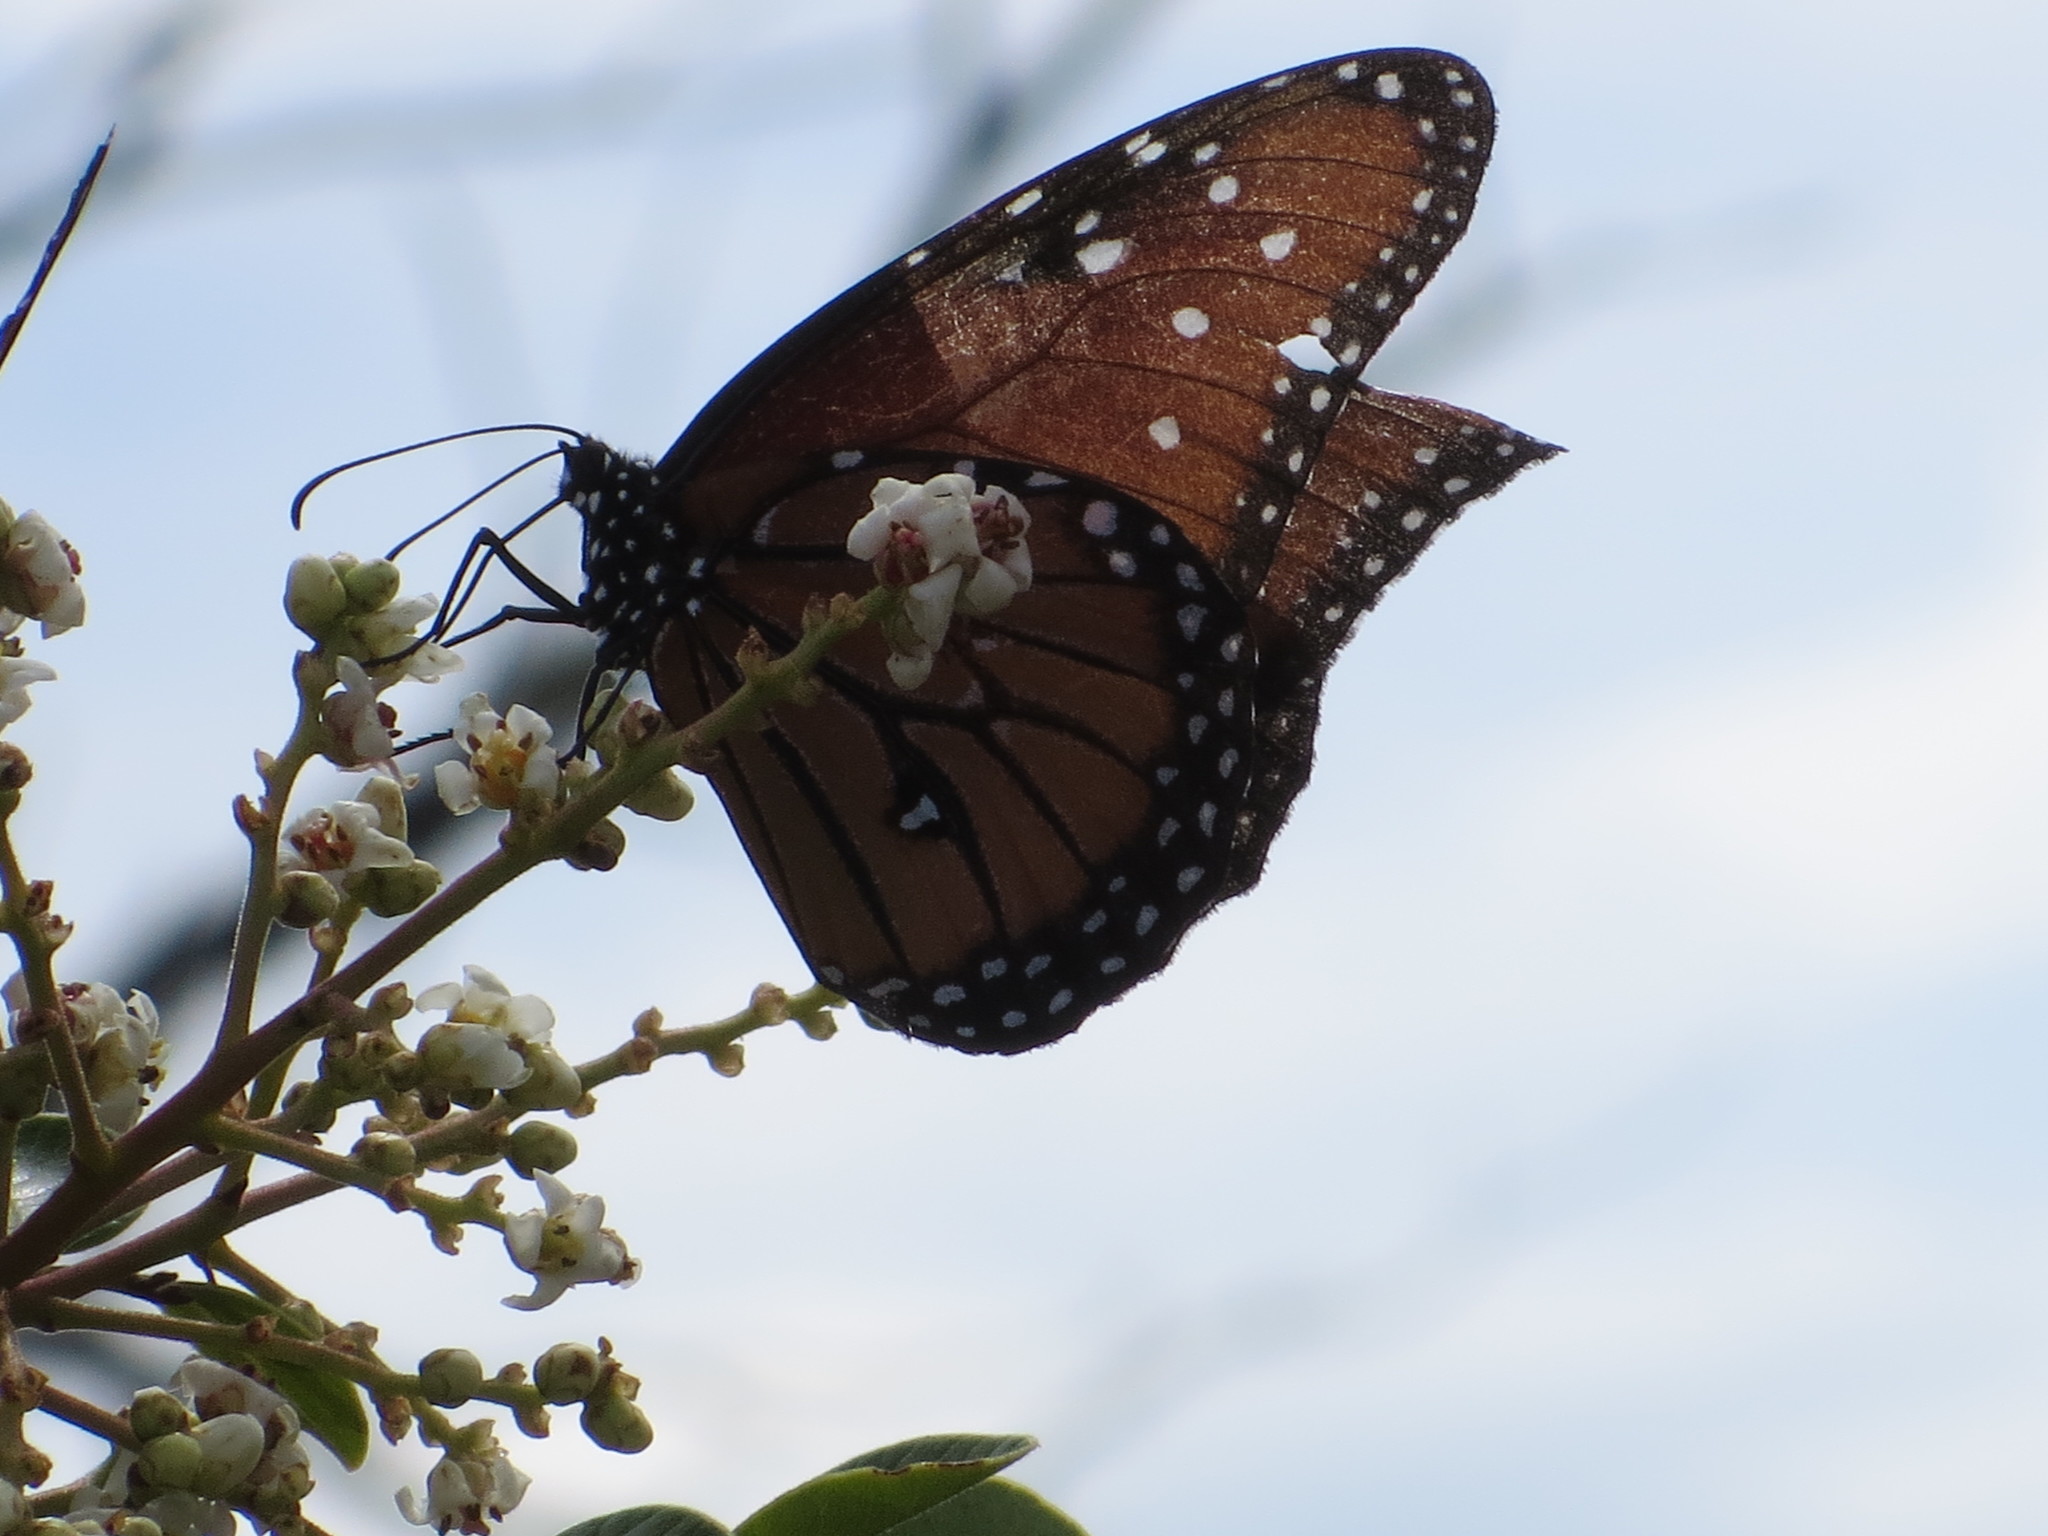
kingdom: Animalia
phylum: Arthropoda
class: Insecta
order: Lepidoptera
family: Nymphalidae
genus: Danaus
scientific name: Danaus gilippus
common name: Queen
